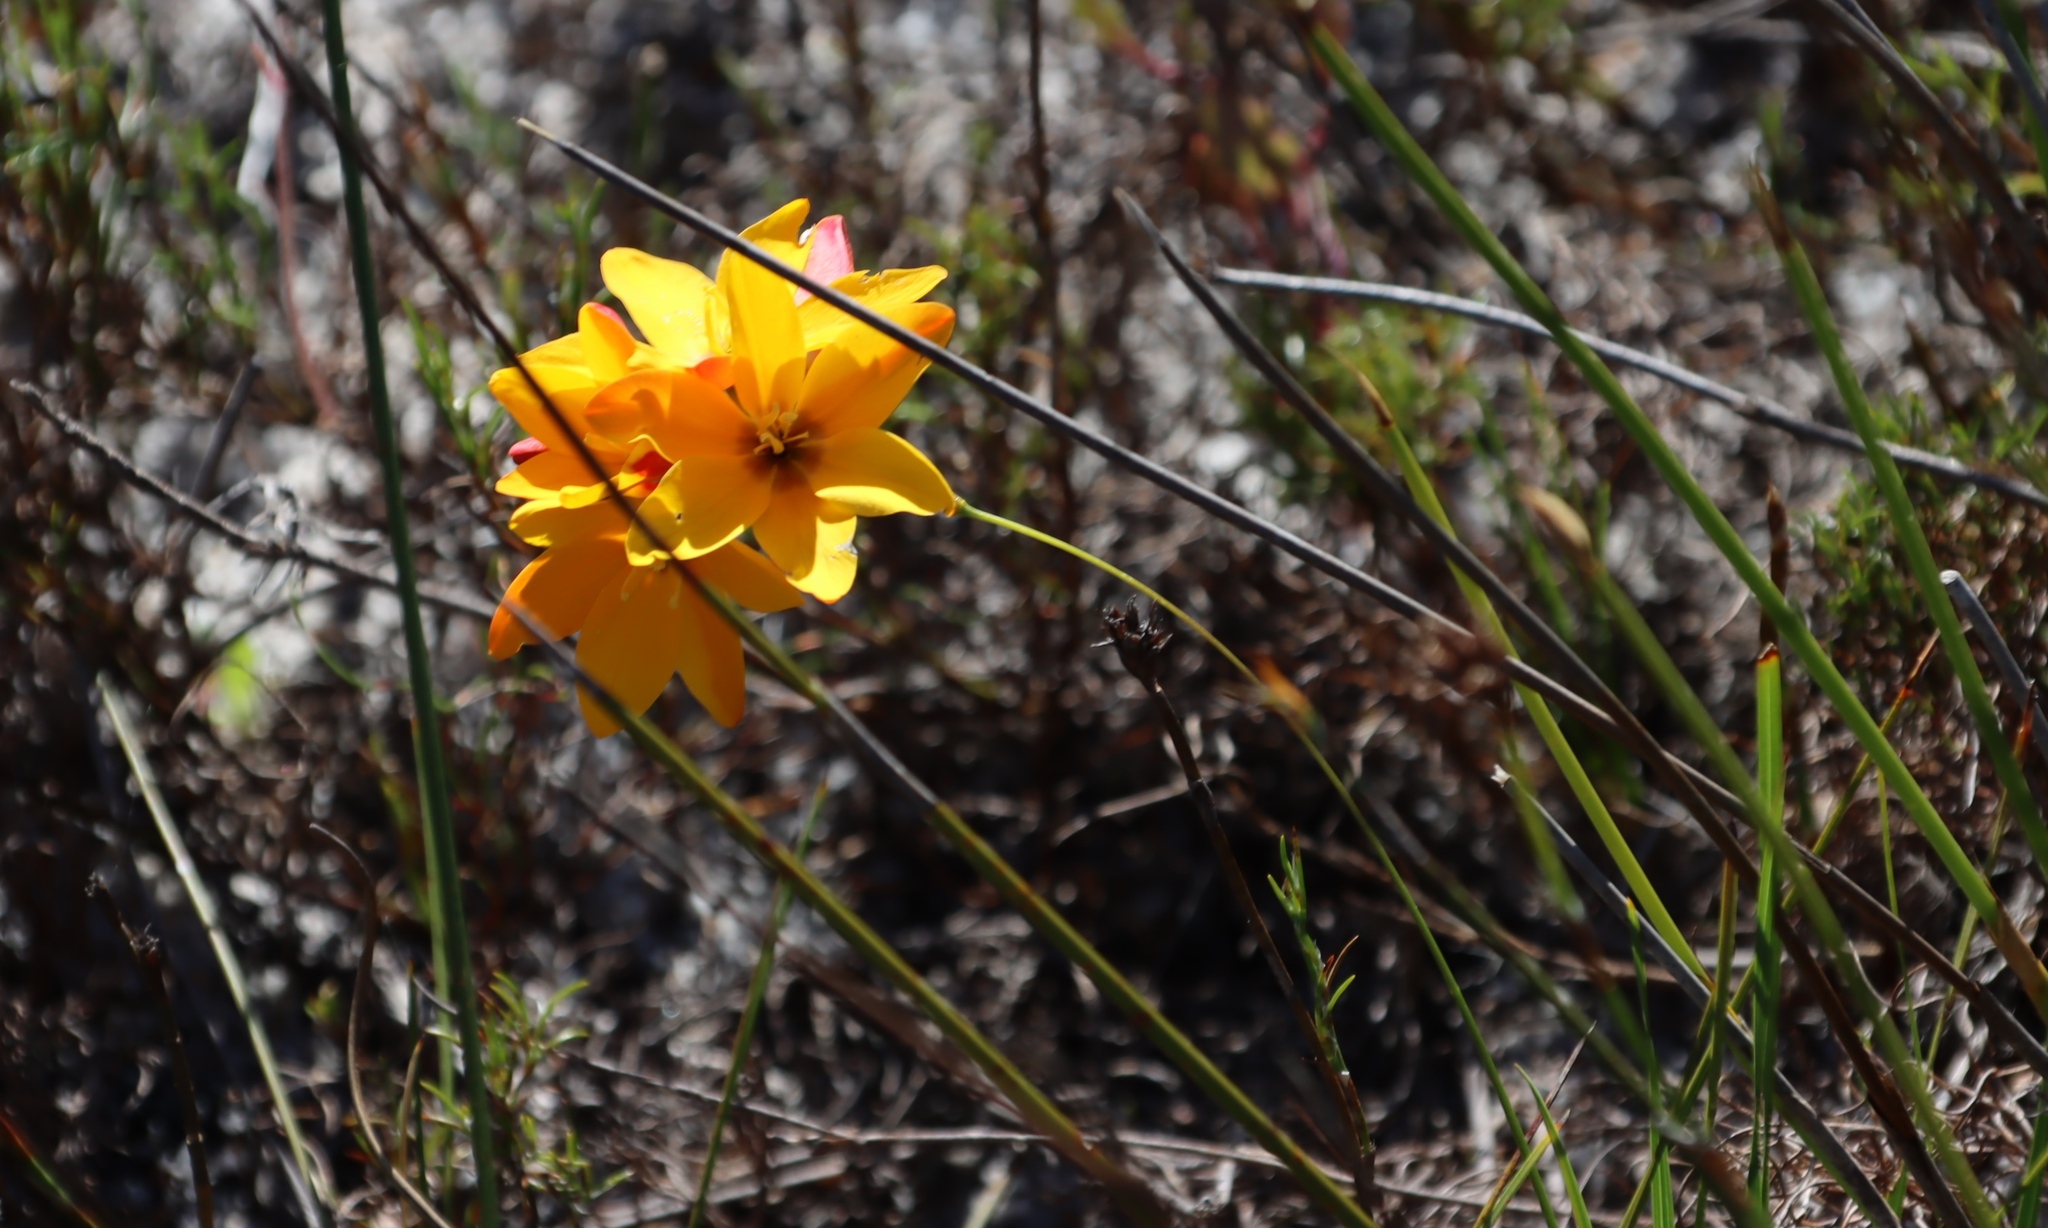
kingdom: Plantae
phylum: Tracheophyta
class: Liliopsida
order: Asparagales
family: Iridaceae
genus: Ixia
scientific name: Ixia dubia
